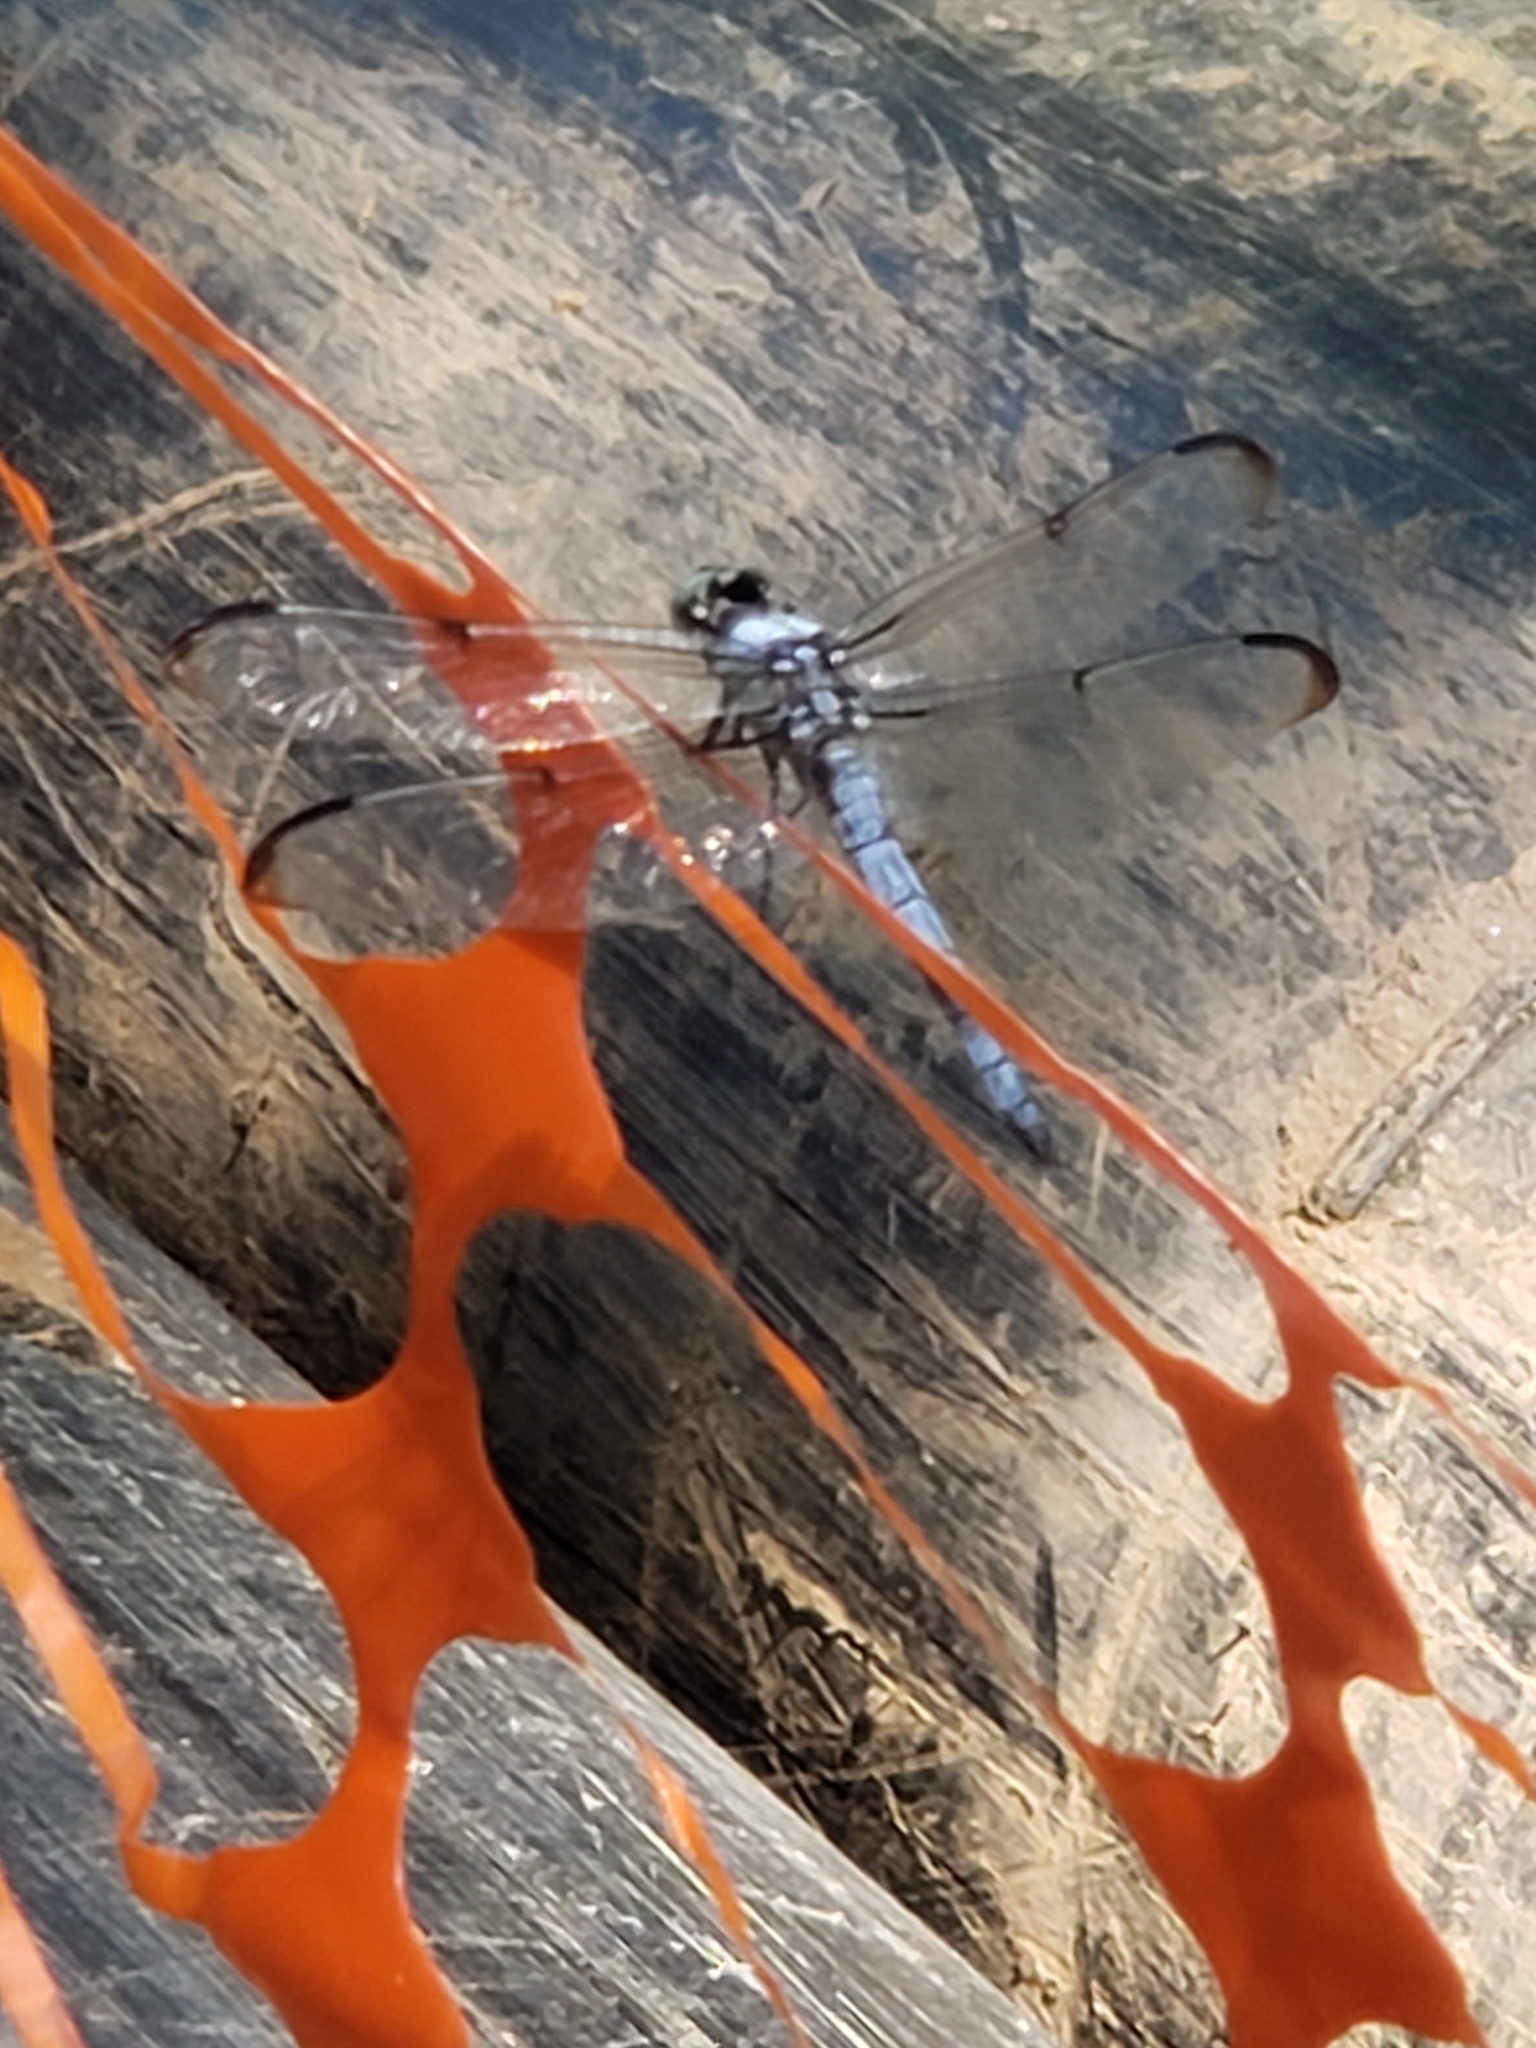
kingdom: Animalia
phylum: Arthropoda
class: Insecta
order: Odonata
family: Libellulidae
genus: Libellula
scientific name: Libellula vibrans
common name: Great blue skimmer
